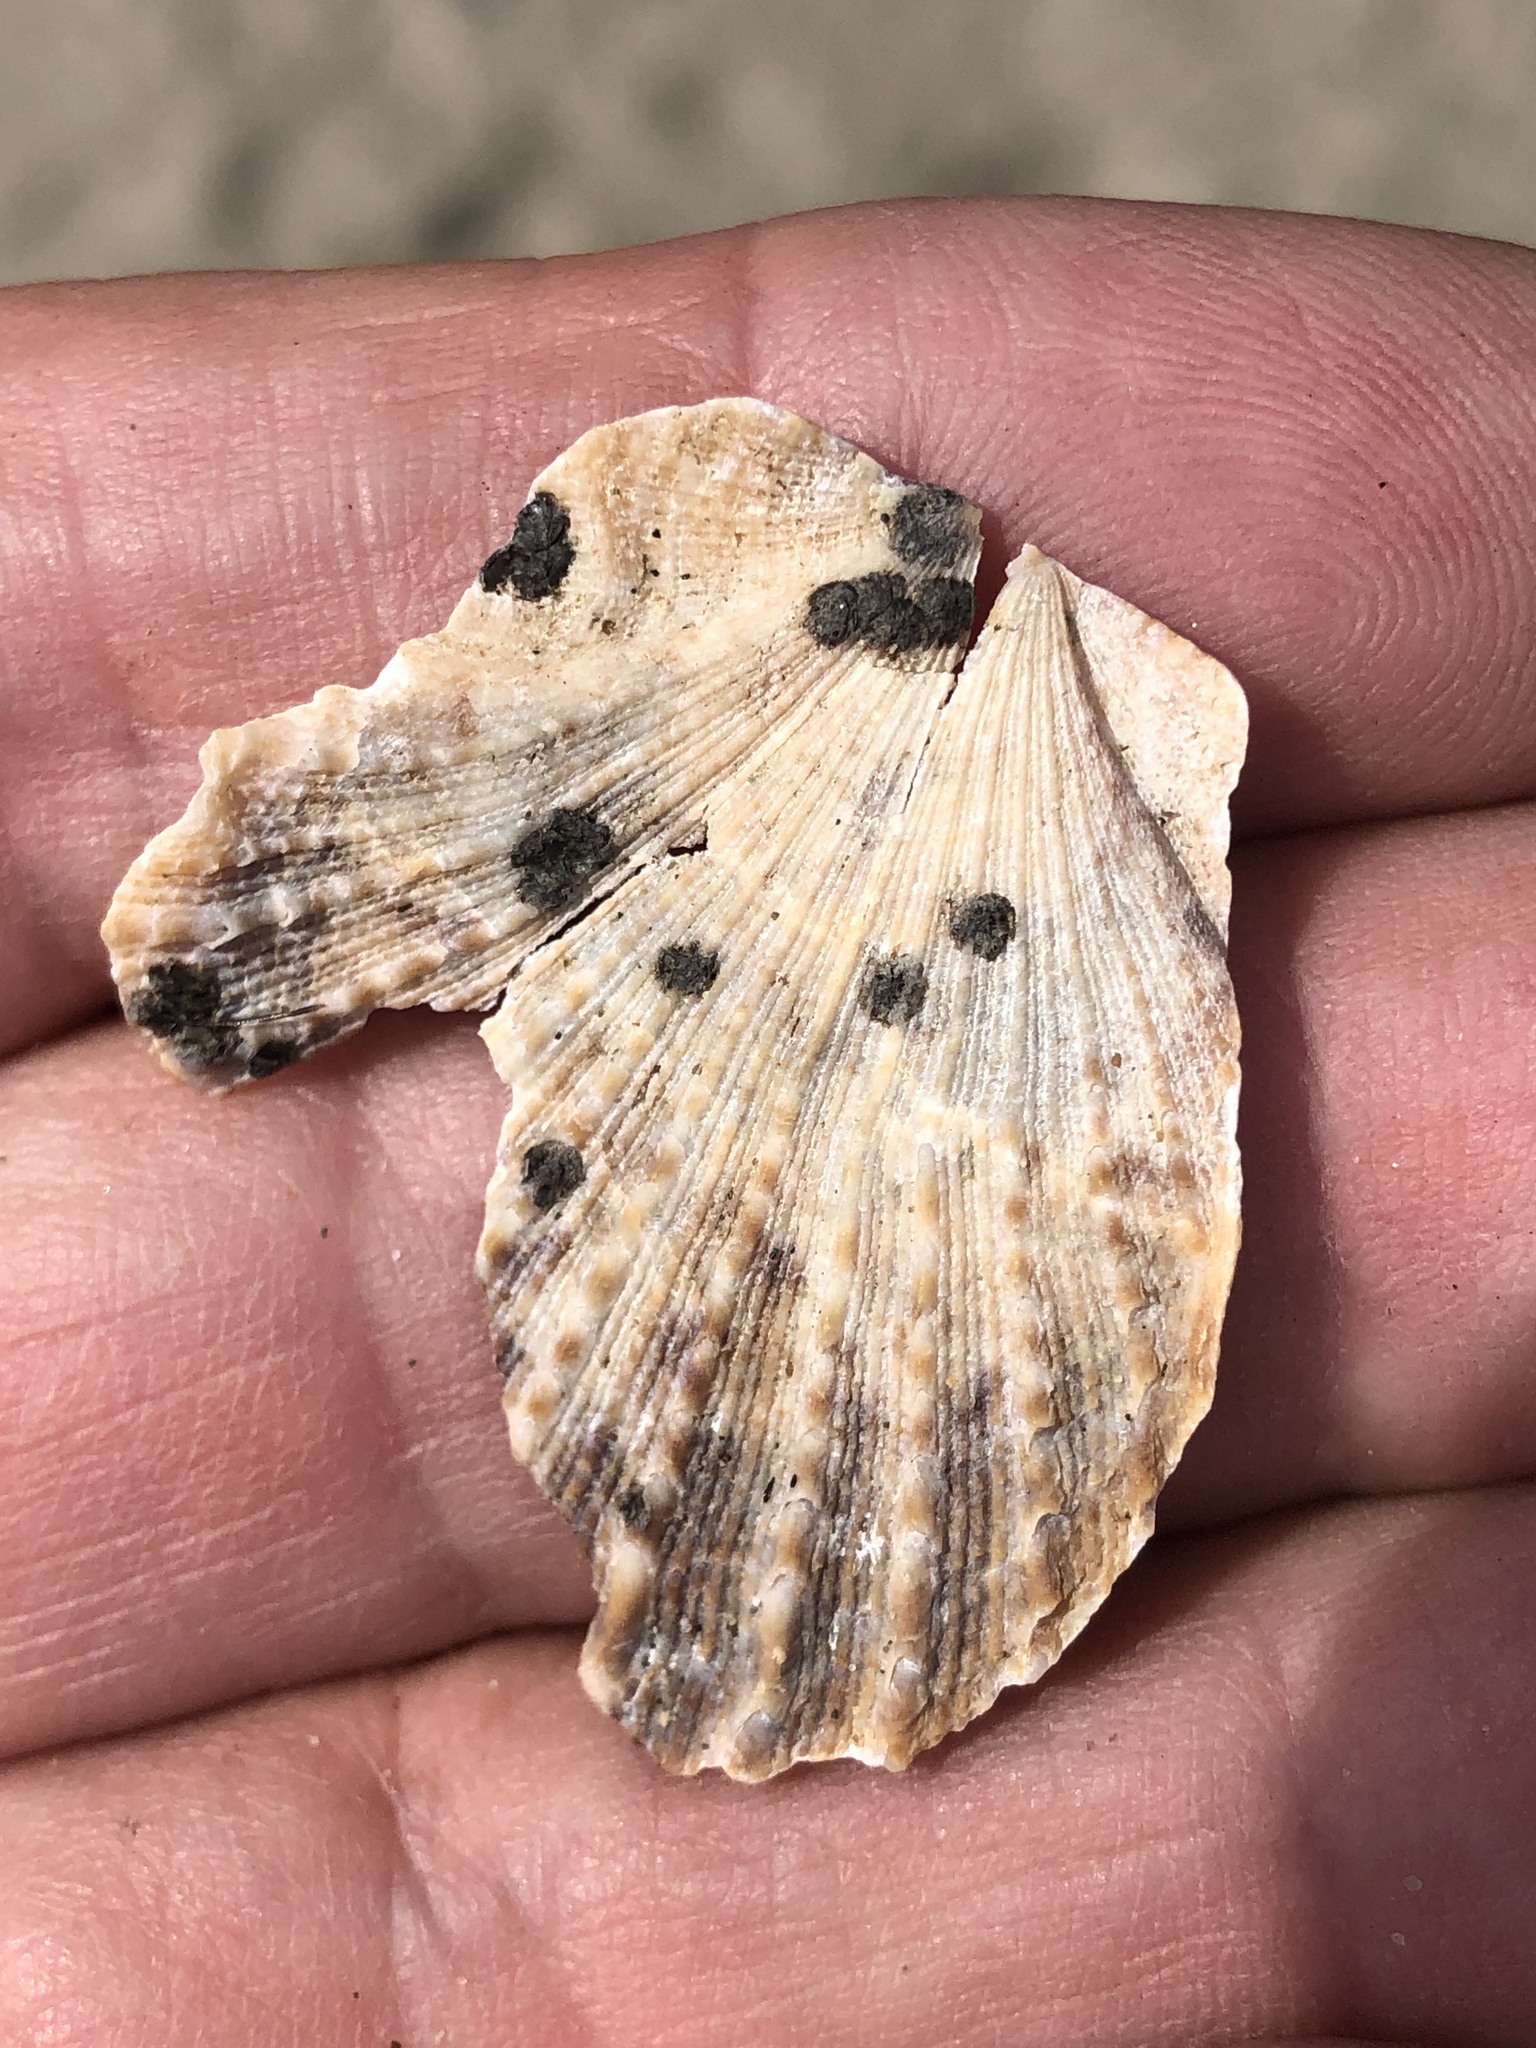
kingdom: Animalia
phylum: Mollusca
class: Bivalvia
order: Pectinida
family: Pectinidae
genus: Crassadoma
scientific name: Crassadoma gigantea
